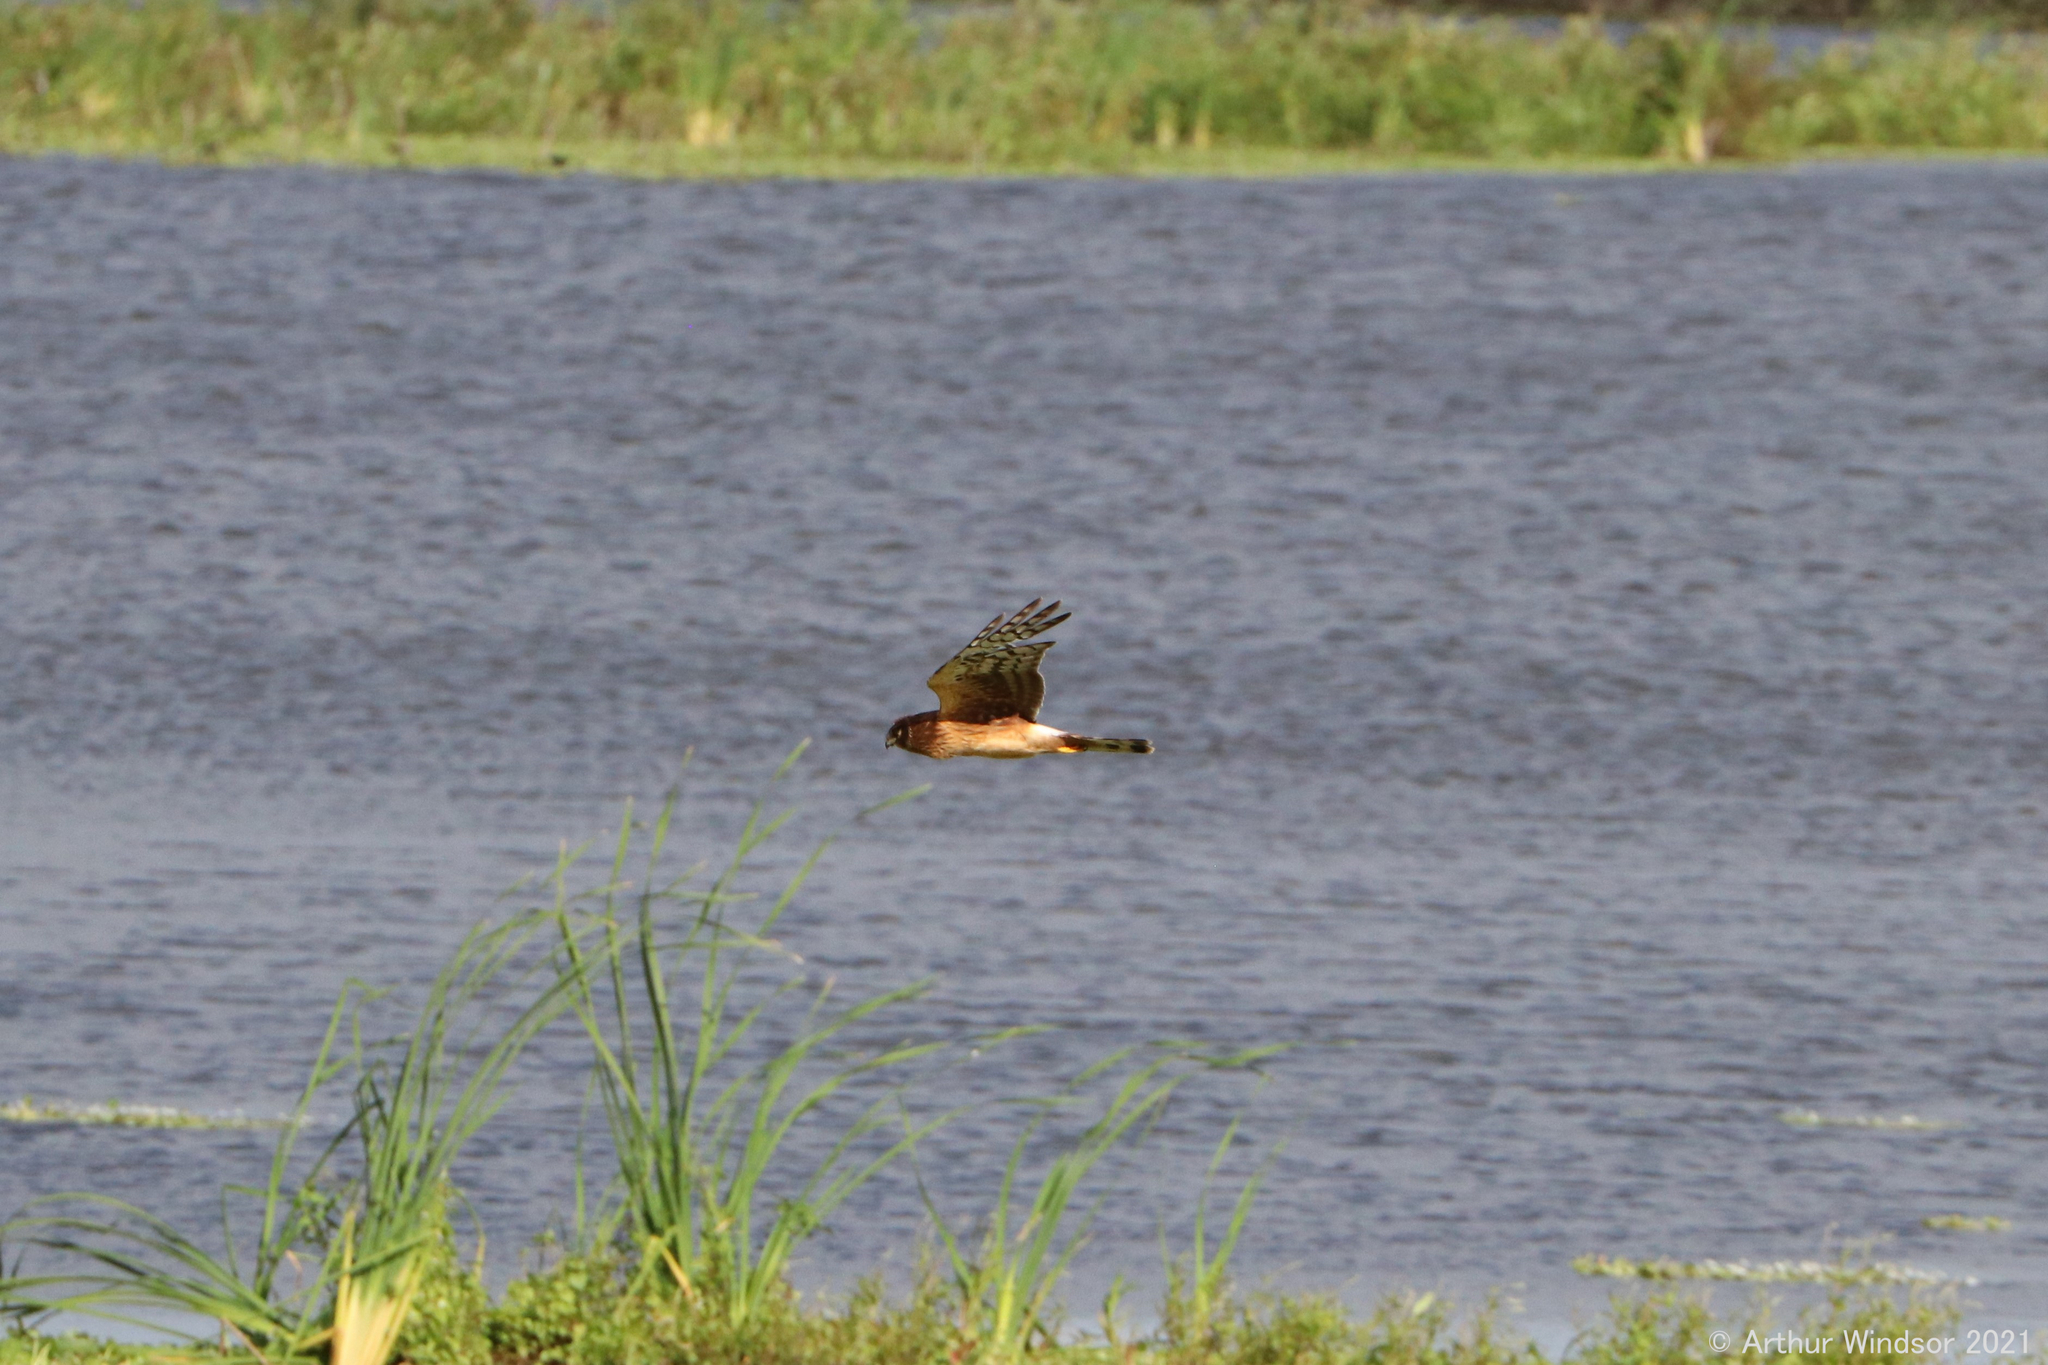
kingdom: Animalia
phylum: Chordata
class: Aves
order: Accipitriformes
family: Accipitridae
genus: Circus
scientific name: Circus cyaneus
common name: Hen harrier
